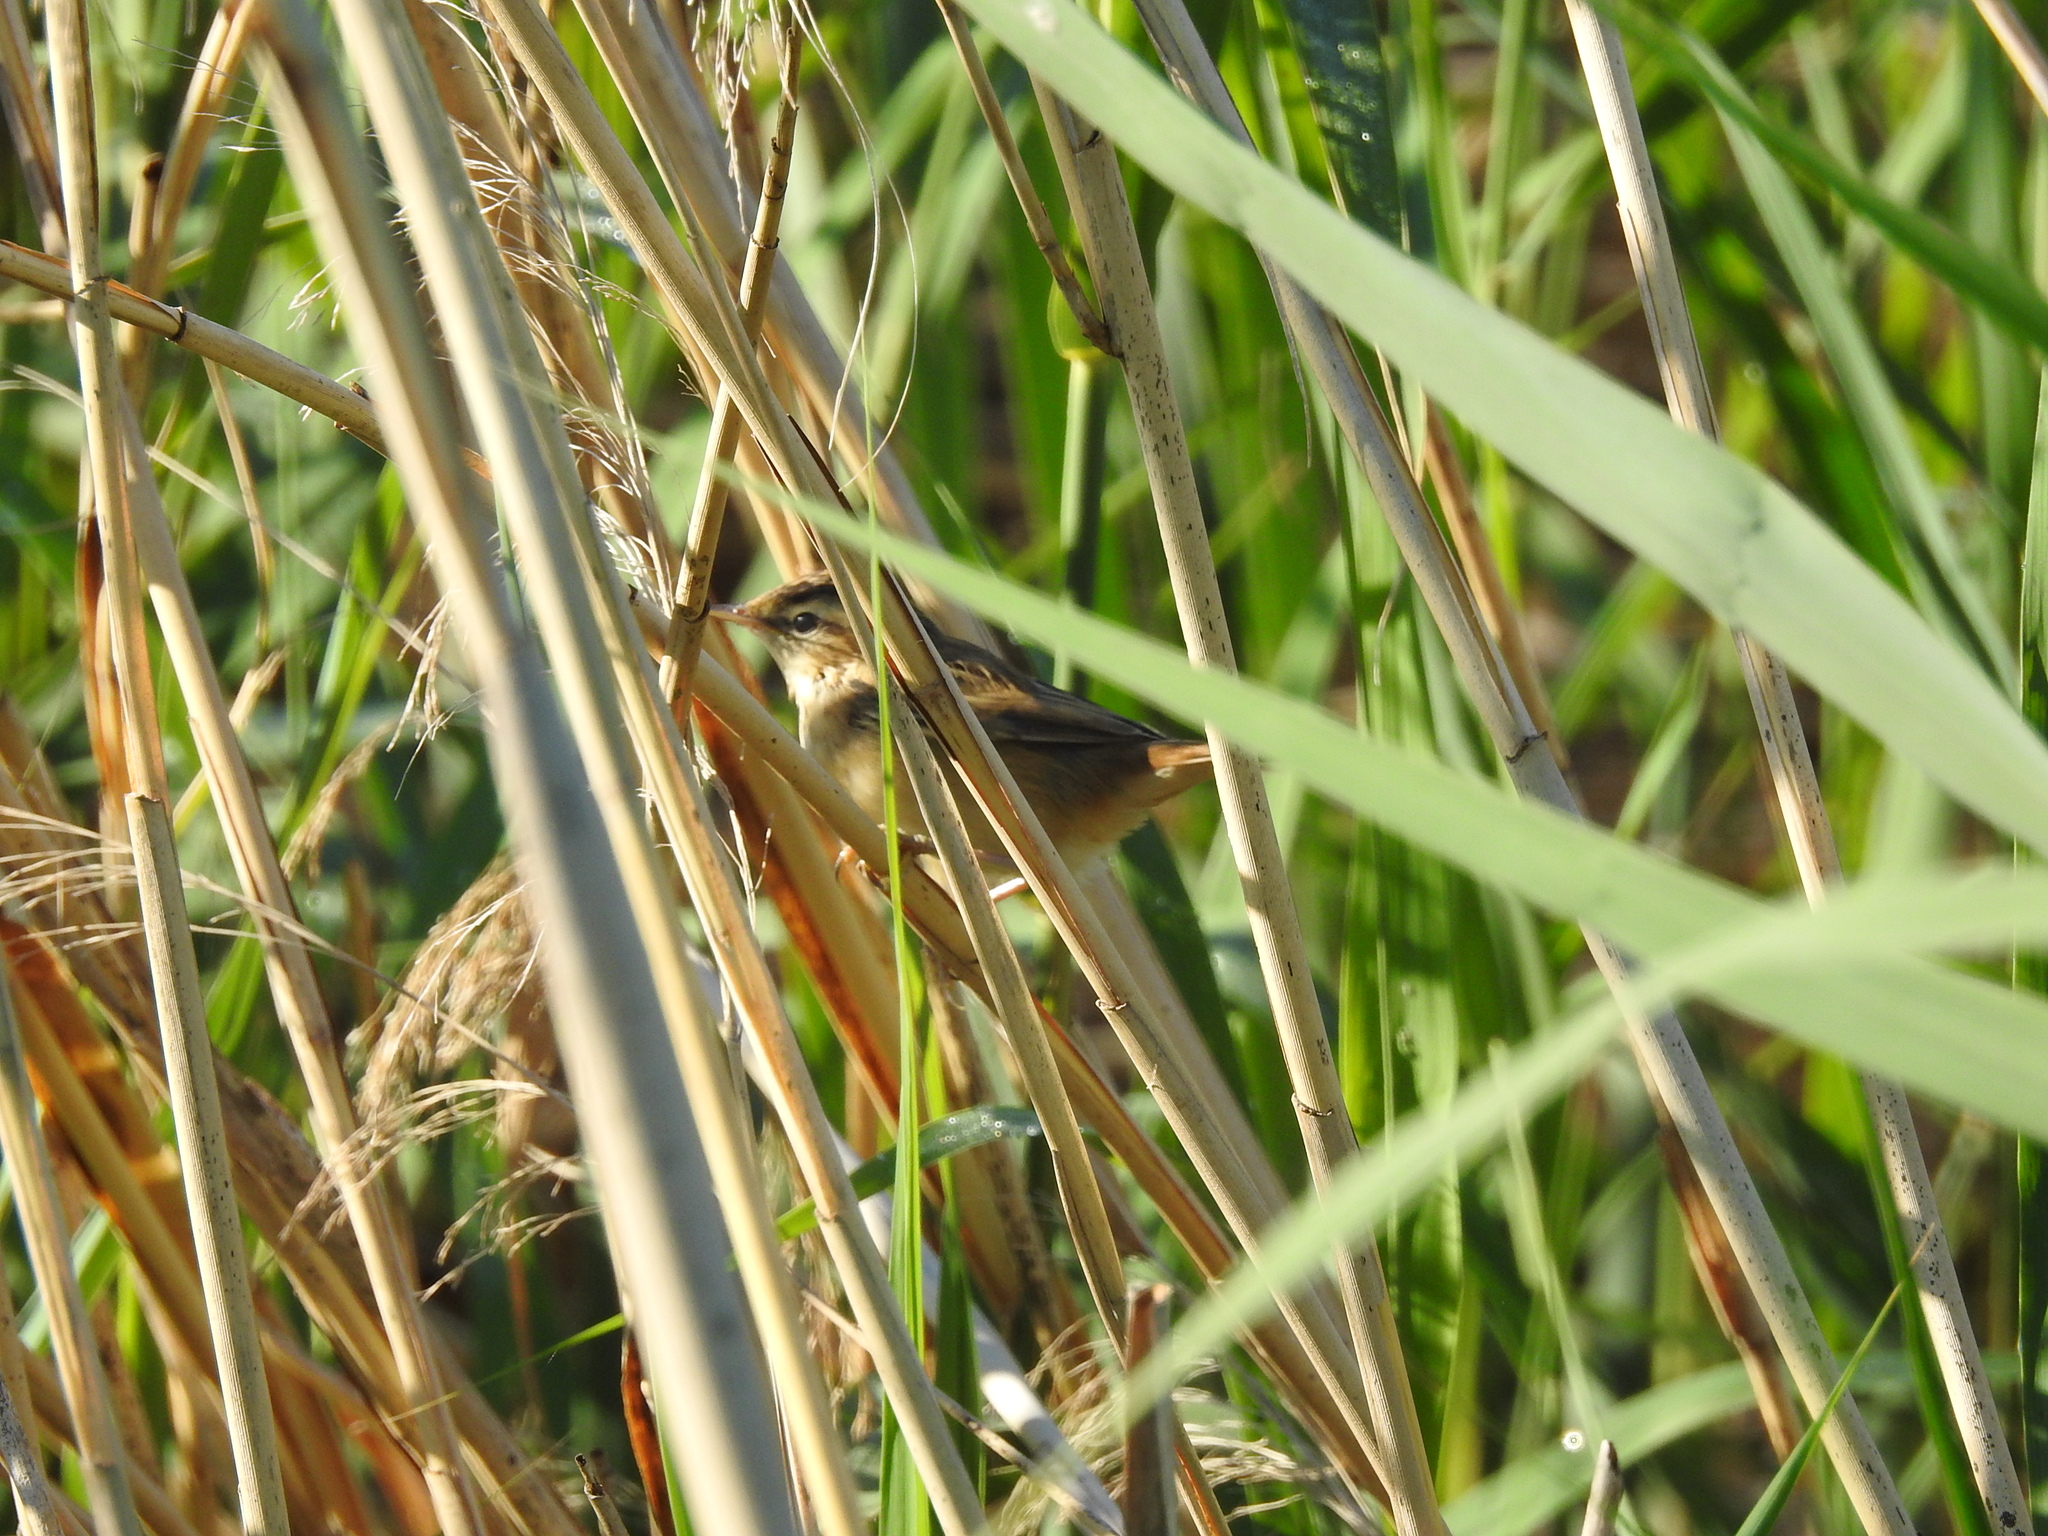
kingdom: Animalia
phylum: Chordata
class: Aves
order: Passeriformes
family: Acrocephalidae
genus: Acrocephalus
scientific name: Acrocephalus schoenobaenus
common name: Sedge warbler
